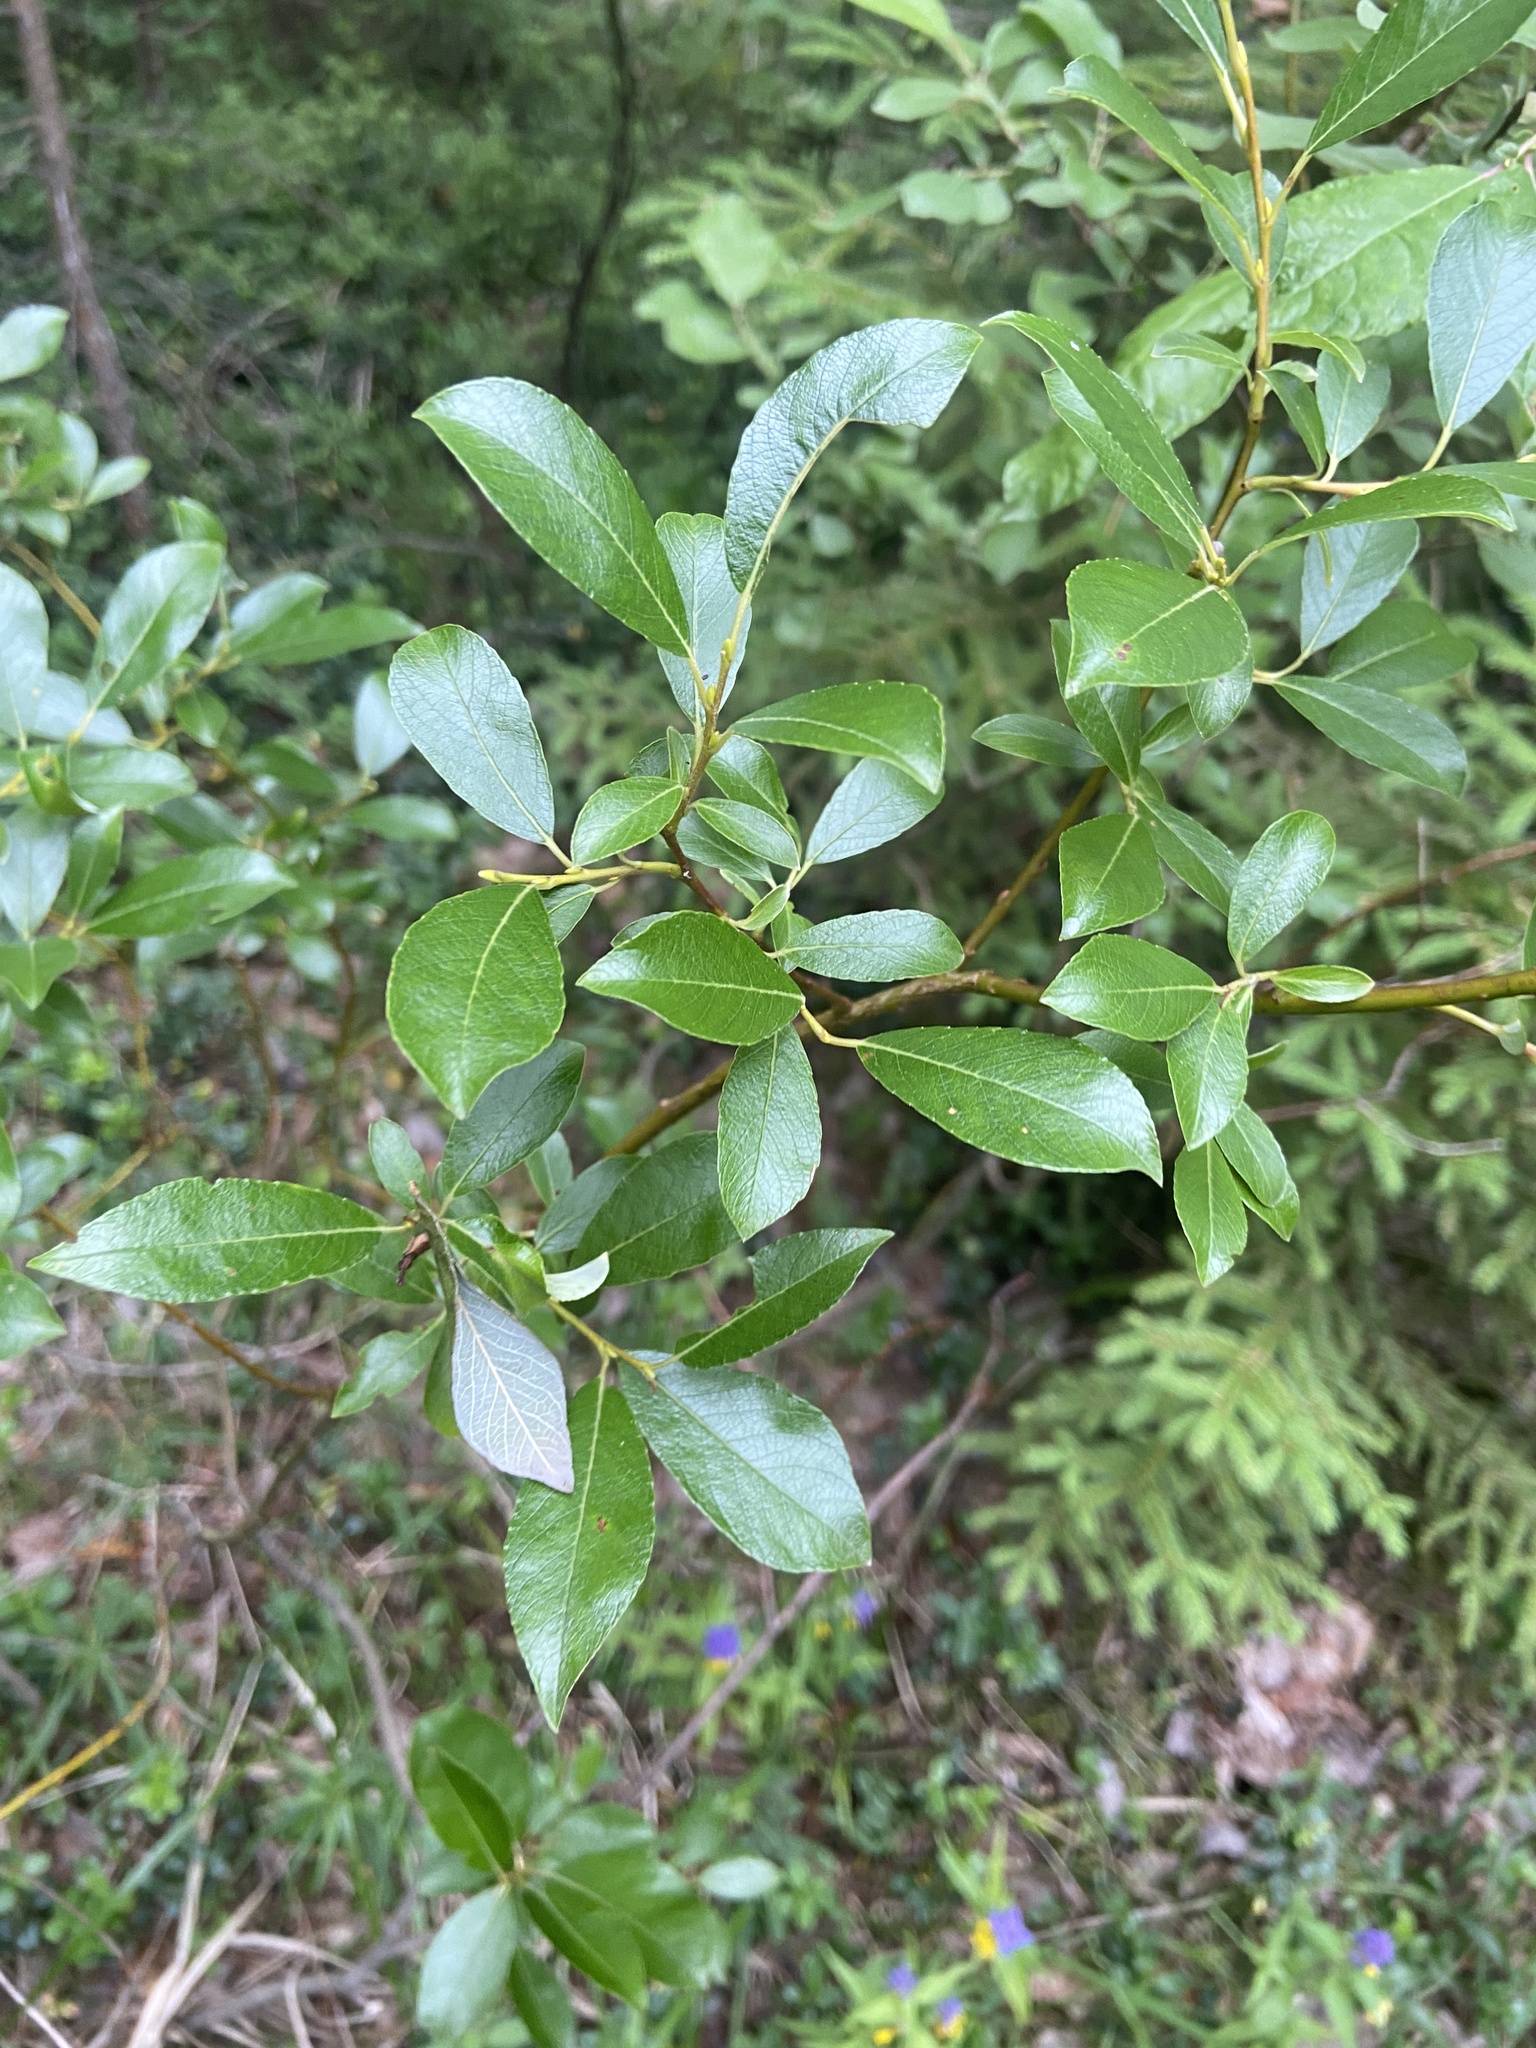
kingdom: Plantae
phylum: Tracheophyta
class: Magnoliopsida
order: Malpighiales
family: Salicaceae
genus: Salix
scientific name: Salix myrsinifolia
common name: Dark-leaved willow
